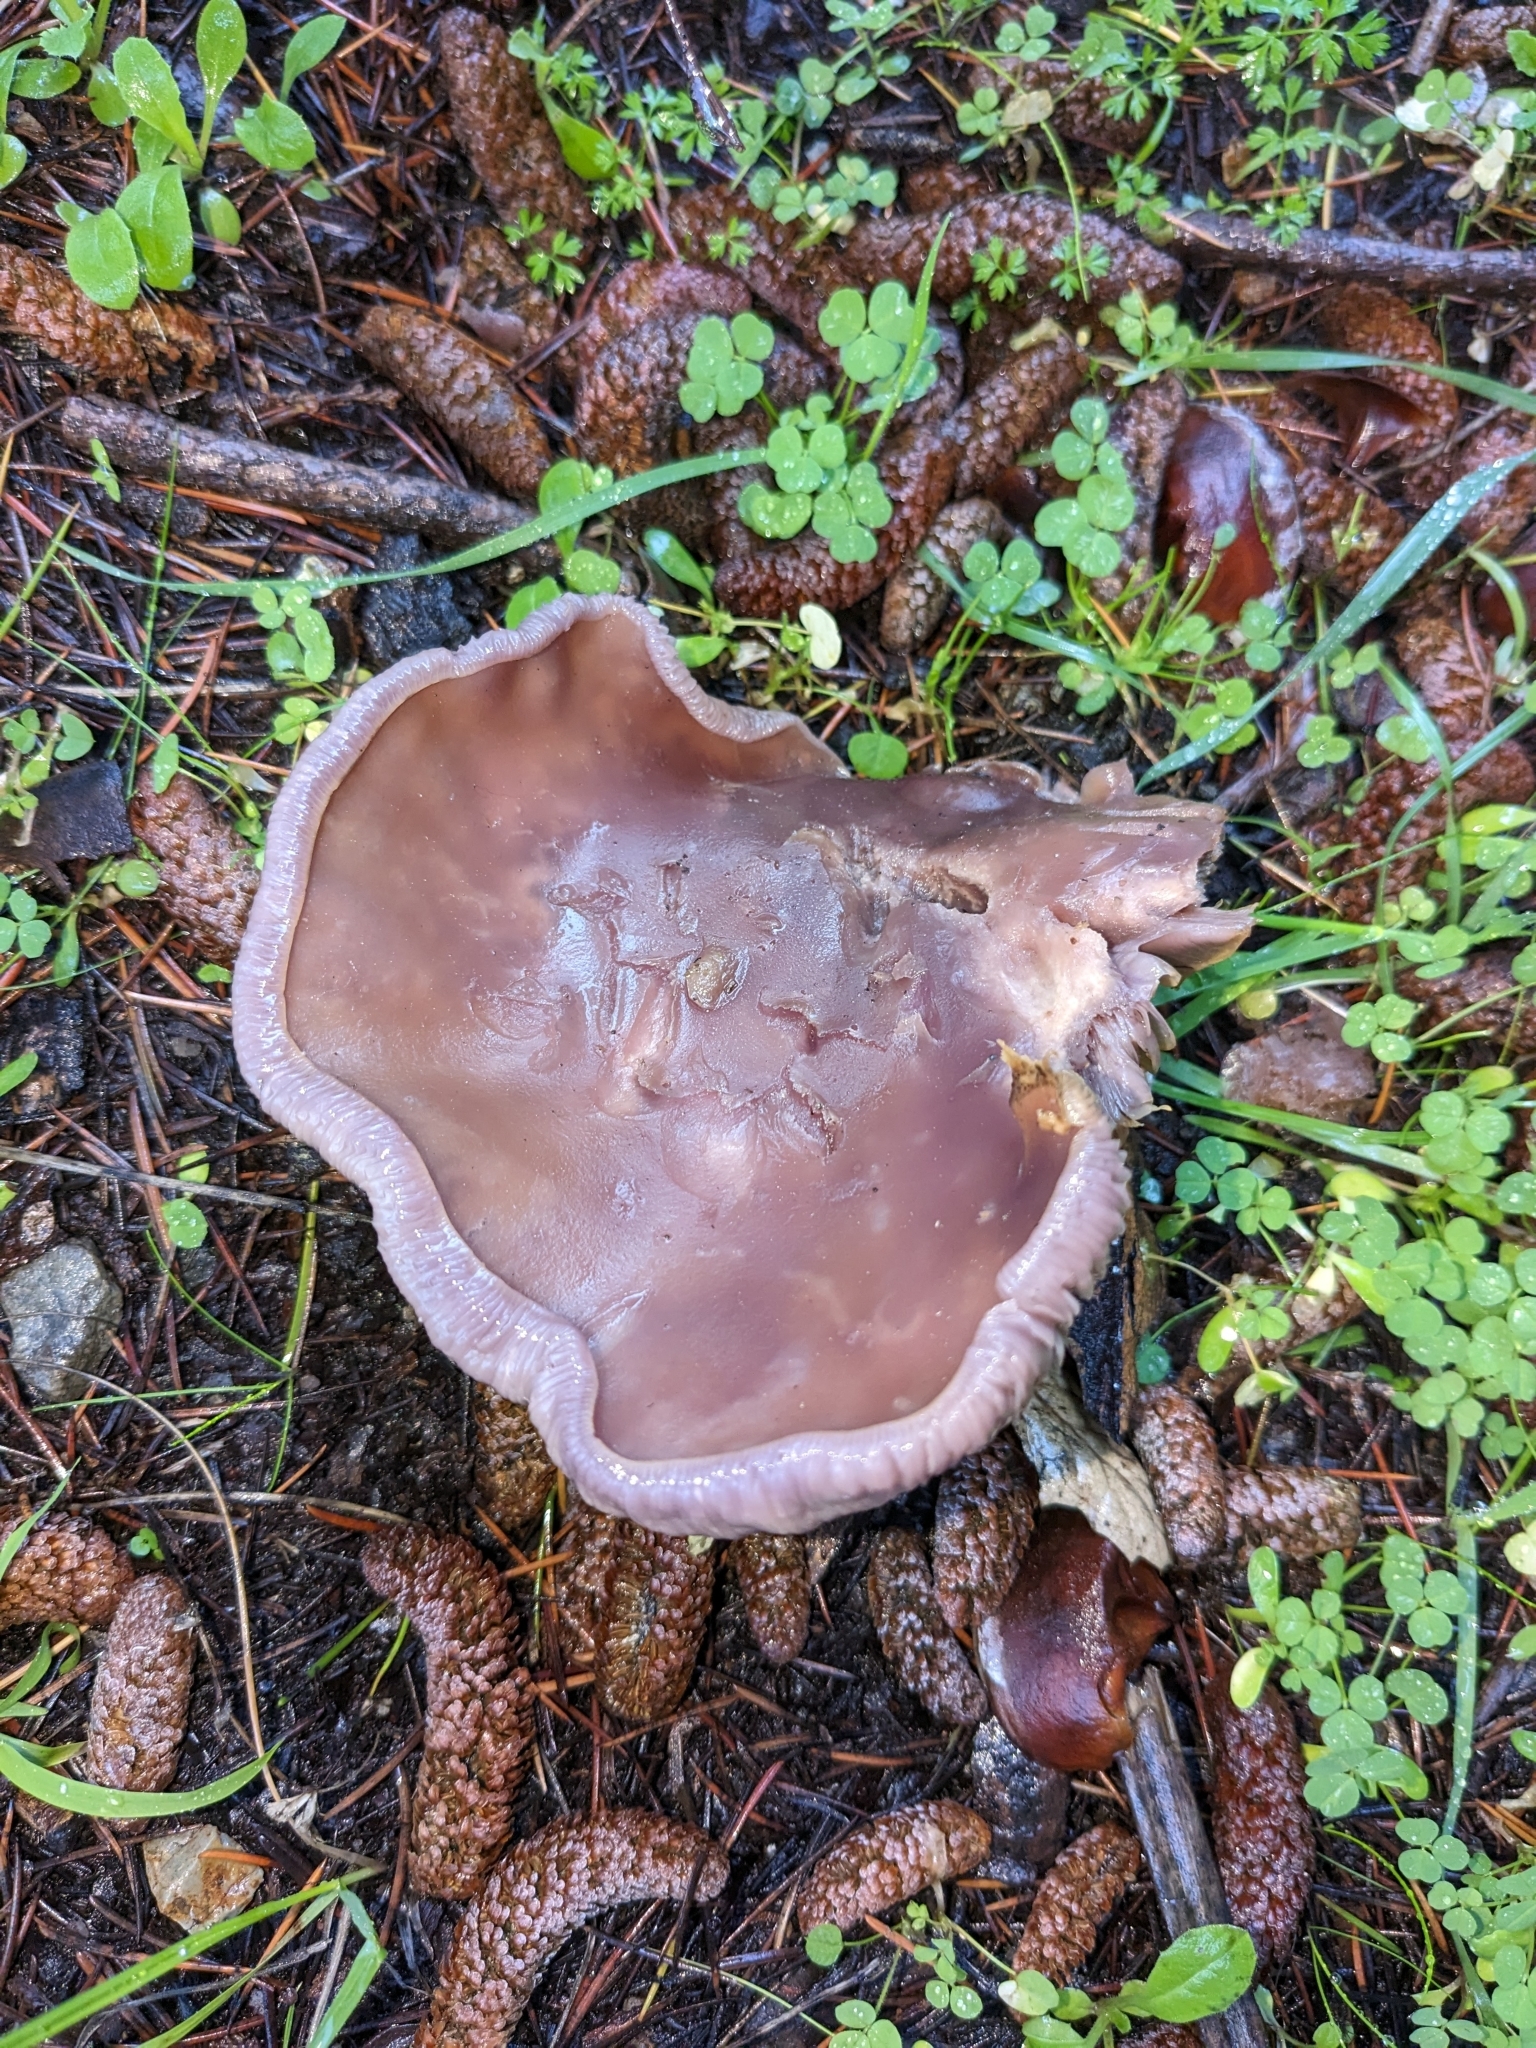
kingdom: Fungi
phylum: Basidiomycota
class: Agaricomycetes
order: Agaricales
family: Tricholomataceae
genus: Collybia
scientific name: Collybia
